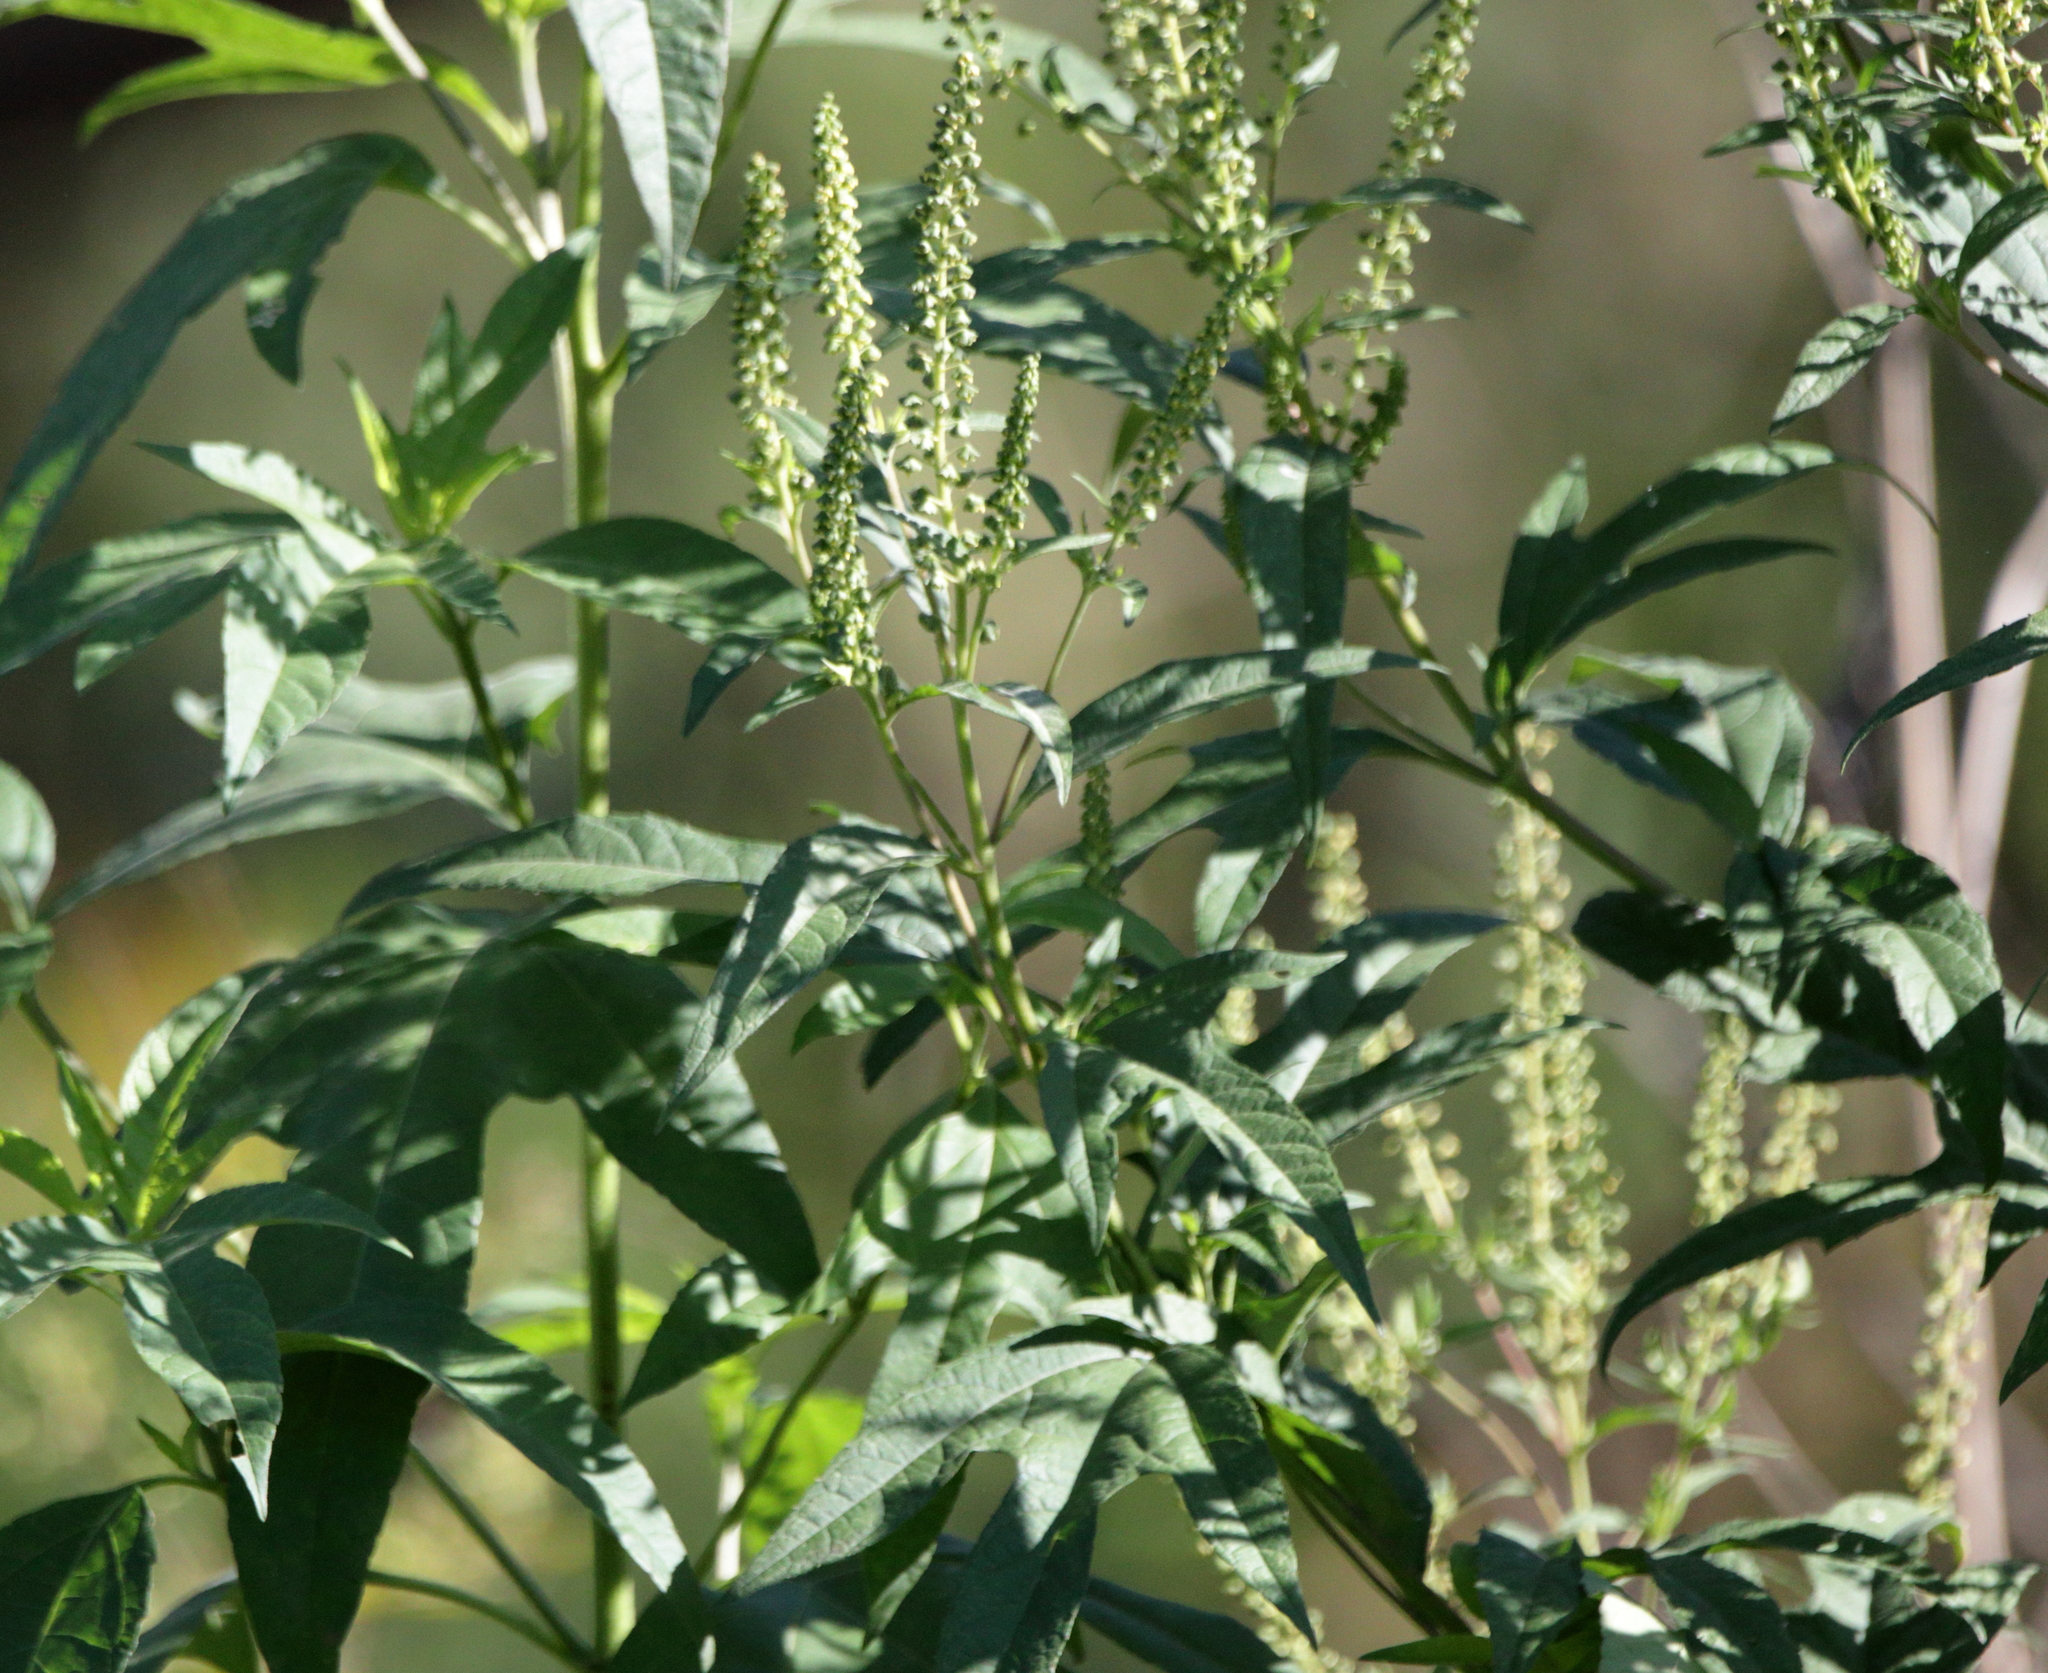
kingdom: Plantae
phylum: Tracheophyta
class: Magnoliopsida
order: Asterales
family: Asteraceae
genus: Ambrosia
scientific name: Ambrosia trifida
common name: Giant ragweed
